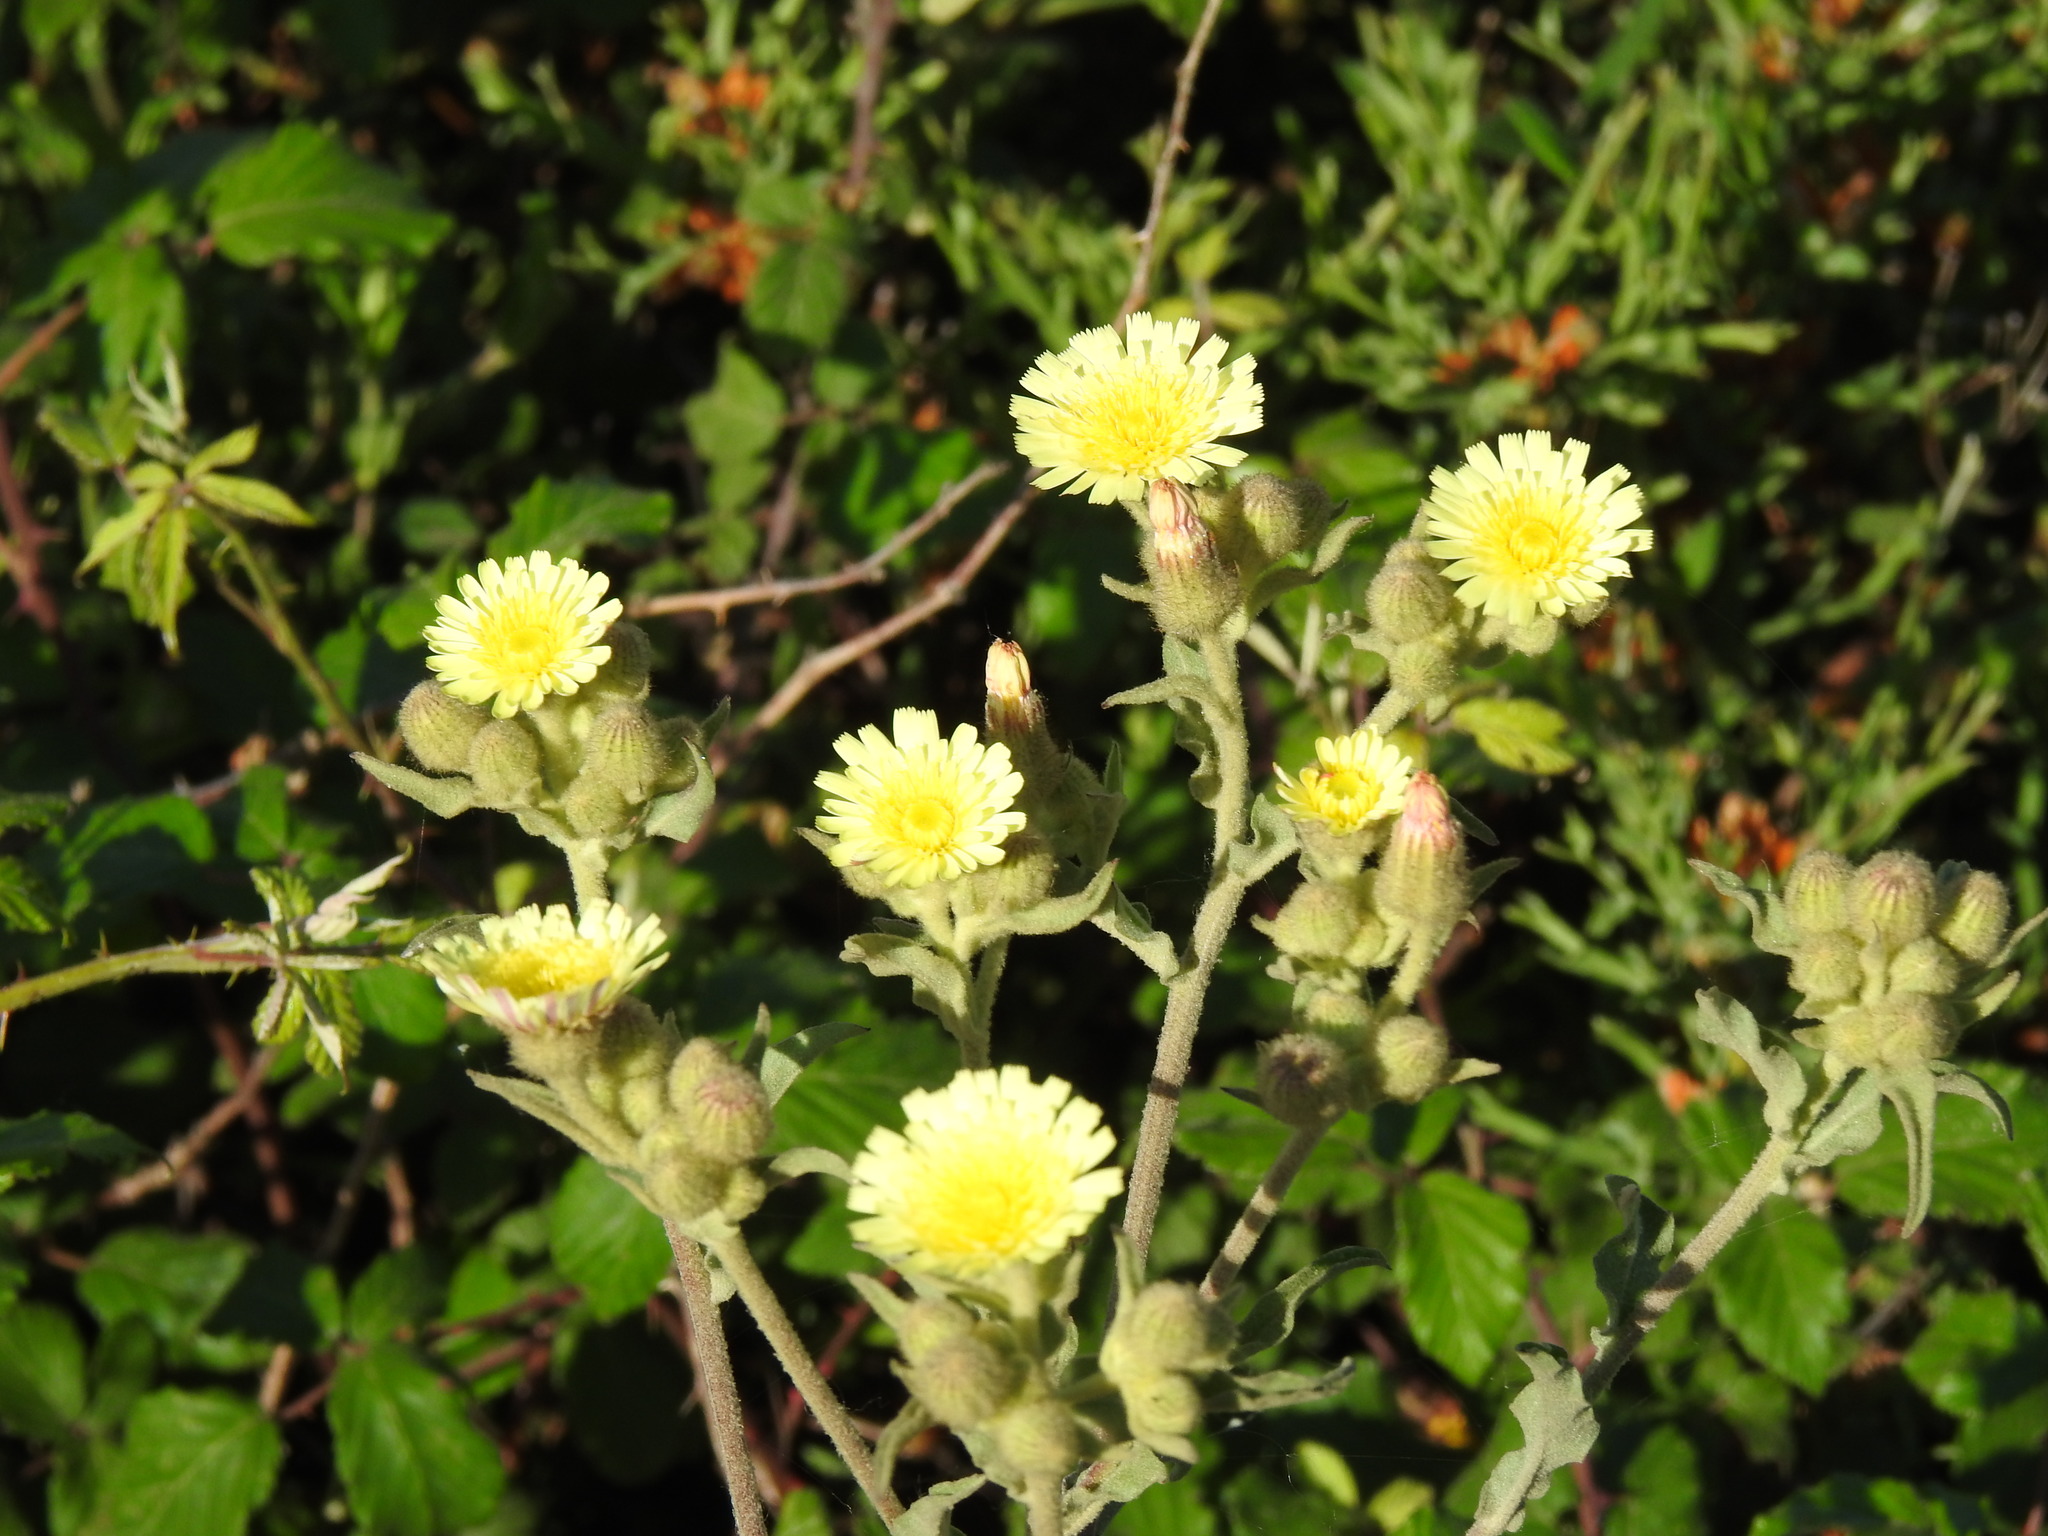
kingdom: Plantae
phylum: Tracheophyta
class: Magnoliopsida
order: Asterales
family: Asteraceae
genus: Andryala
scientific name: Andryala integrifolia
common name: Common andryala
